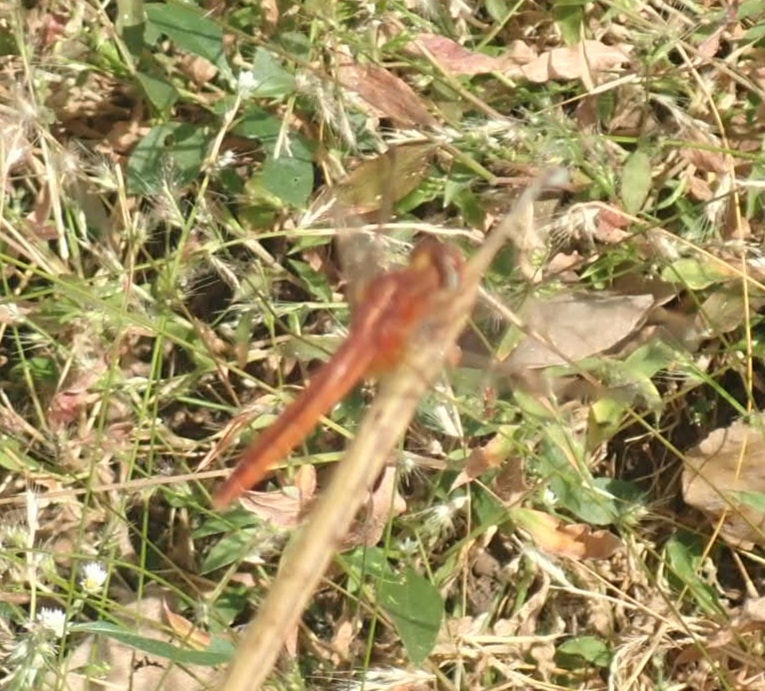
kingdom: Animalia
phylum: Arthropoda
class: Insecta
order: Odonata
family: Libellulidae
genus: Crocothemis
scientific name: Crocothemis servilia
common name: Scarlet skimmer
